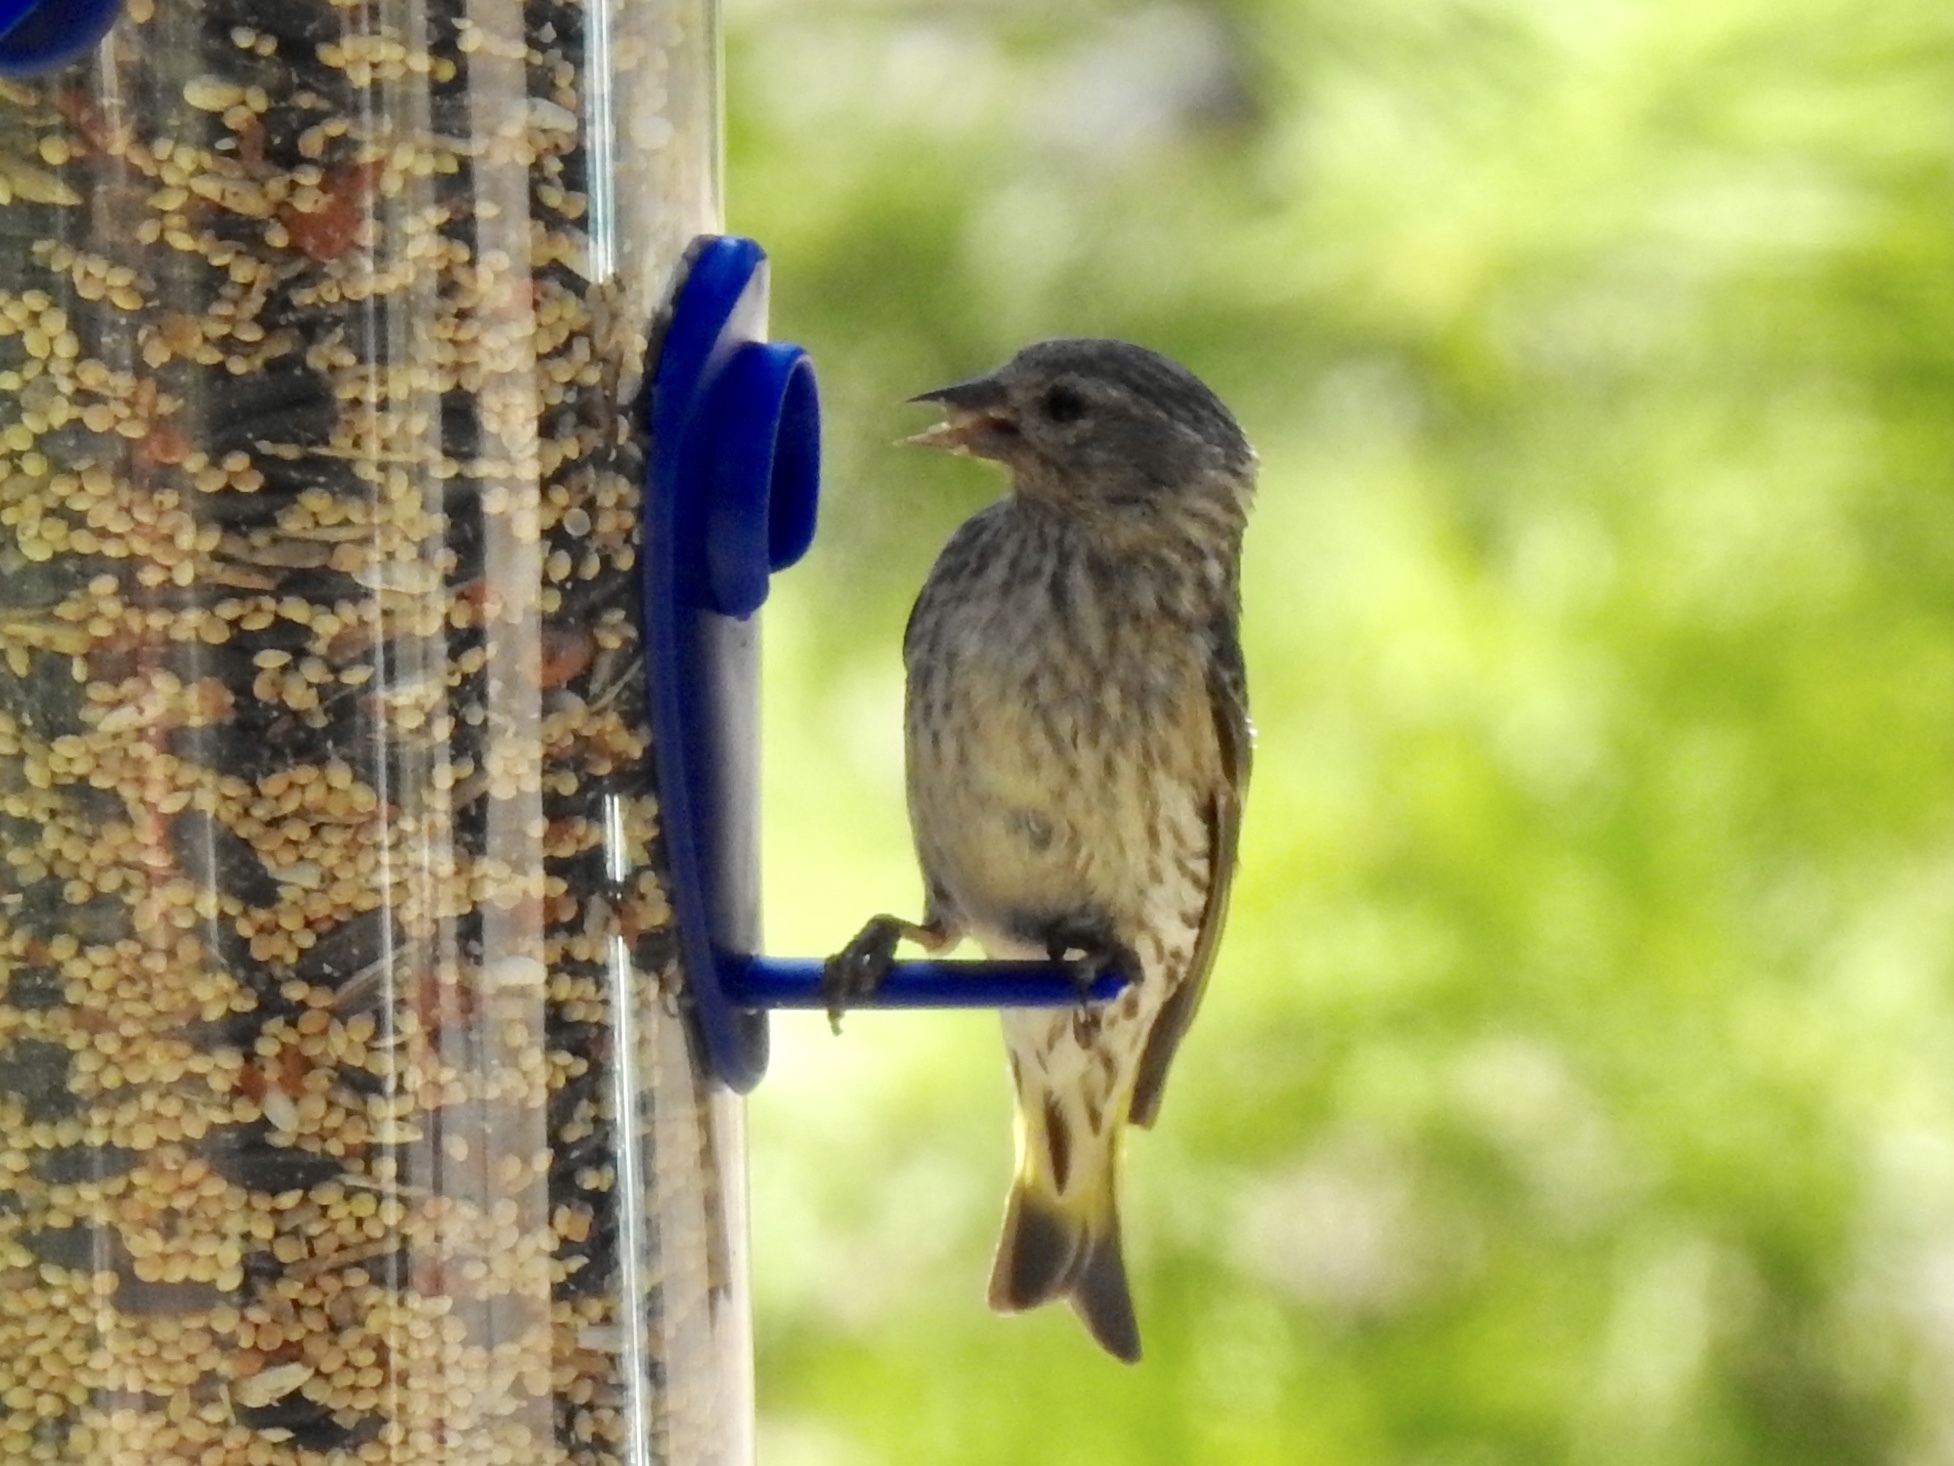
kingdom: Animalia
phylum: Chordata
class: Aves
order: Passeriformes
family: Fringillidae
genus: Spinus
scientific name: Spinus pinus
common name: Pine siskin
